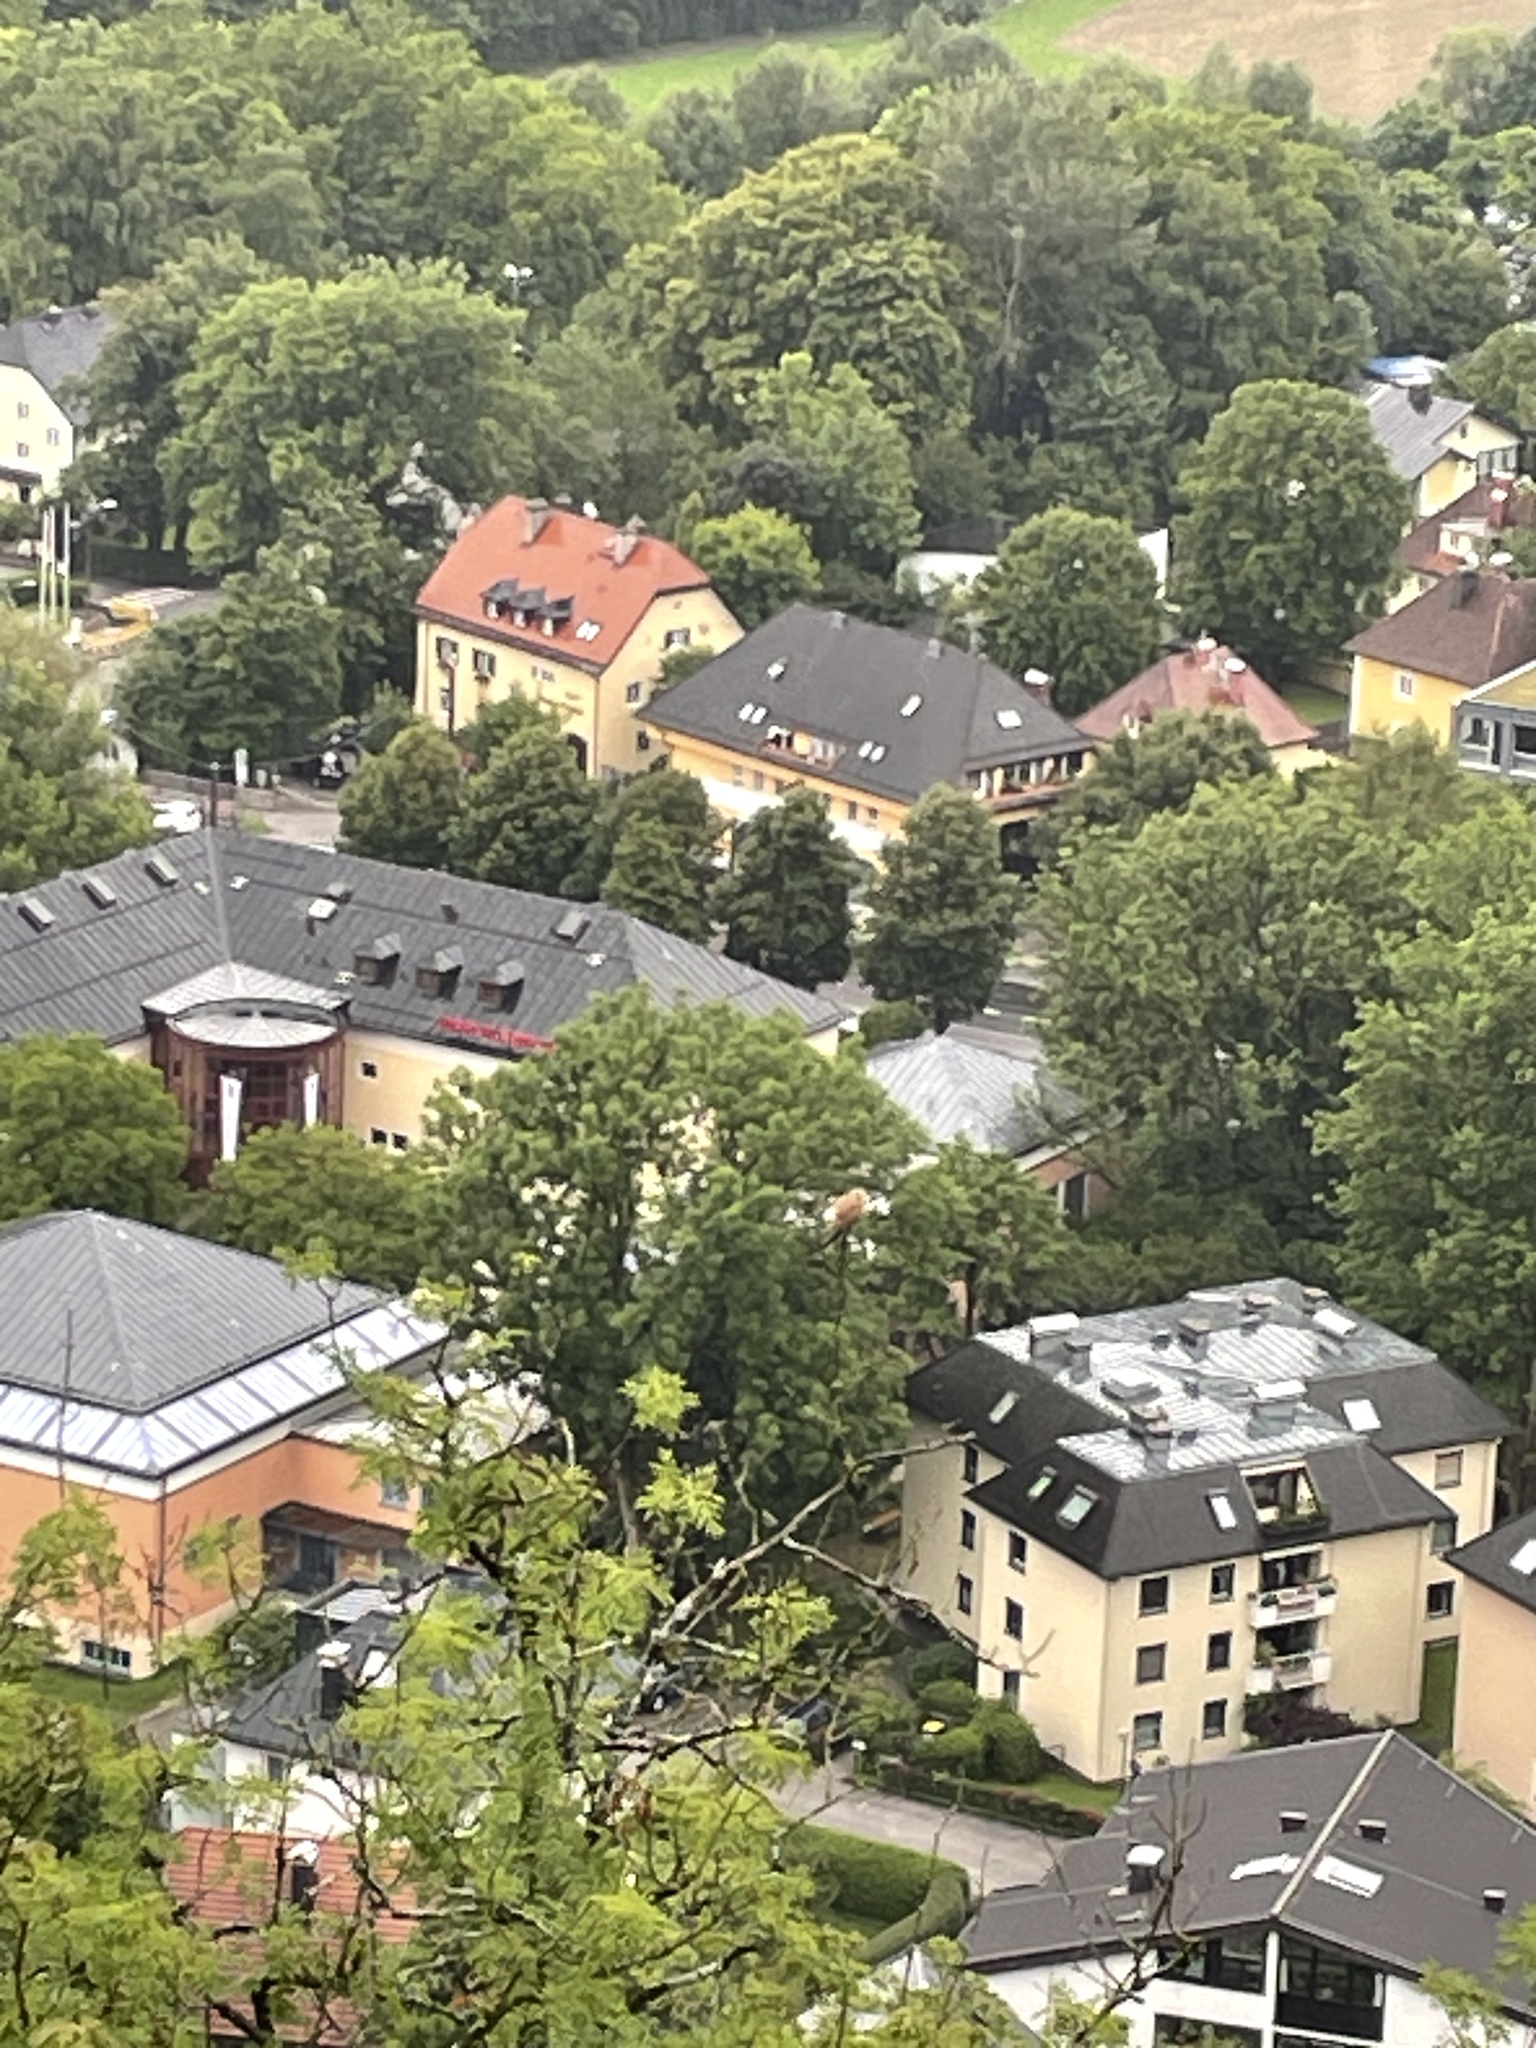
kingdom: Animalia
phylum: Chordata
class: Aves
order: Falconiformes
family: Falconidae
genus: Falco
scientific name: Falco tinnunculus
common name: Common kestrel
